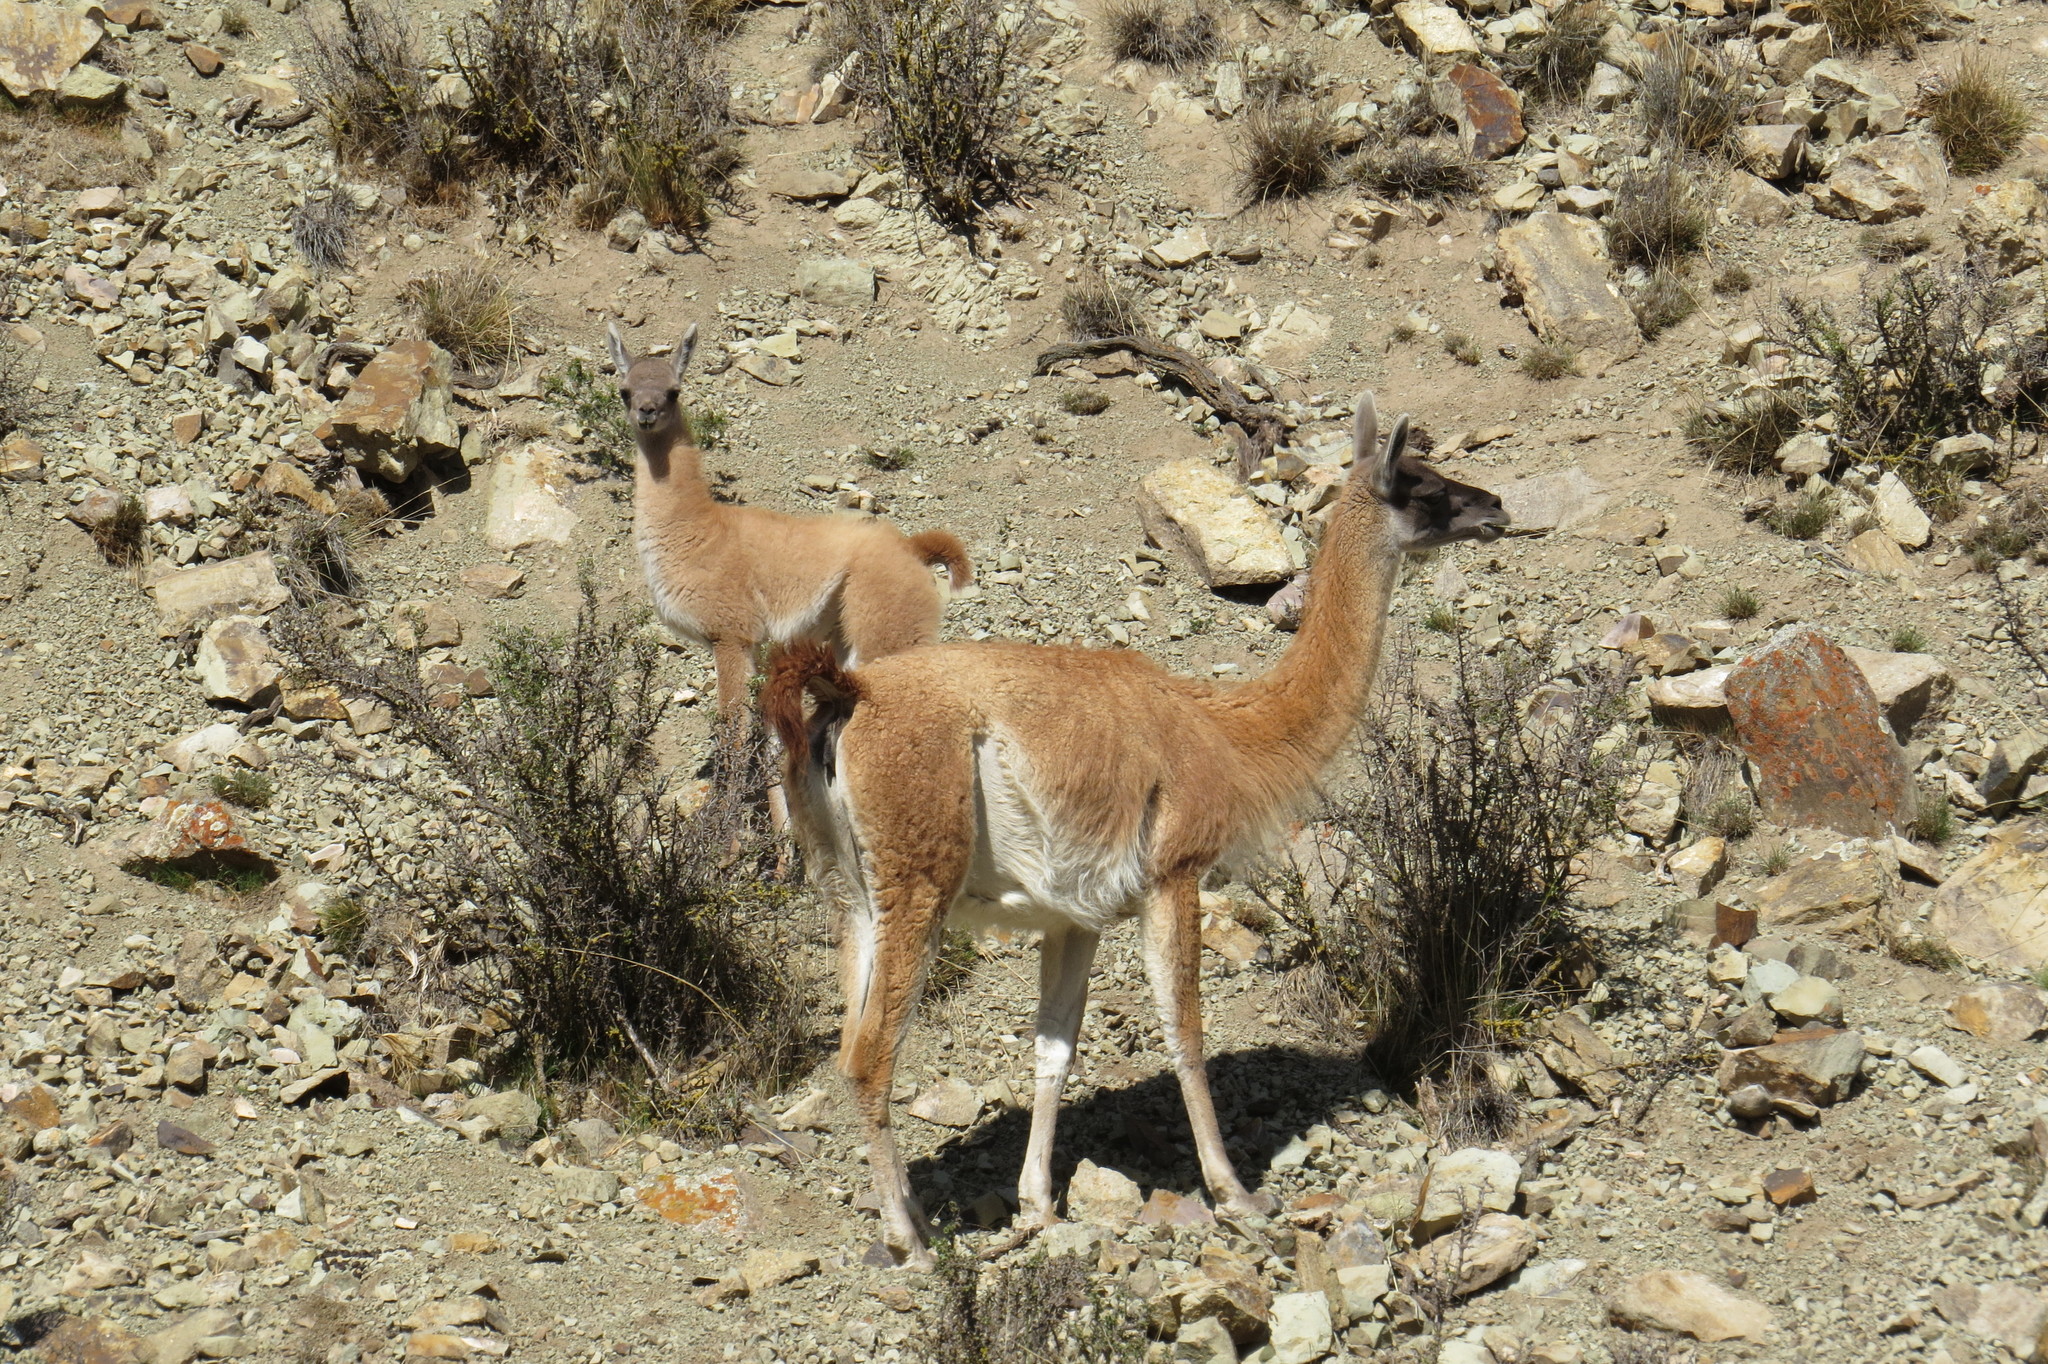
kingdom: Animalia
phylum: Chordata
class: Mammalia
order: Artiodactyla
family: Camelidae
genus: Lama
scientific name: Lama glama
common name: Llama
